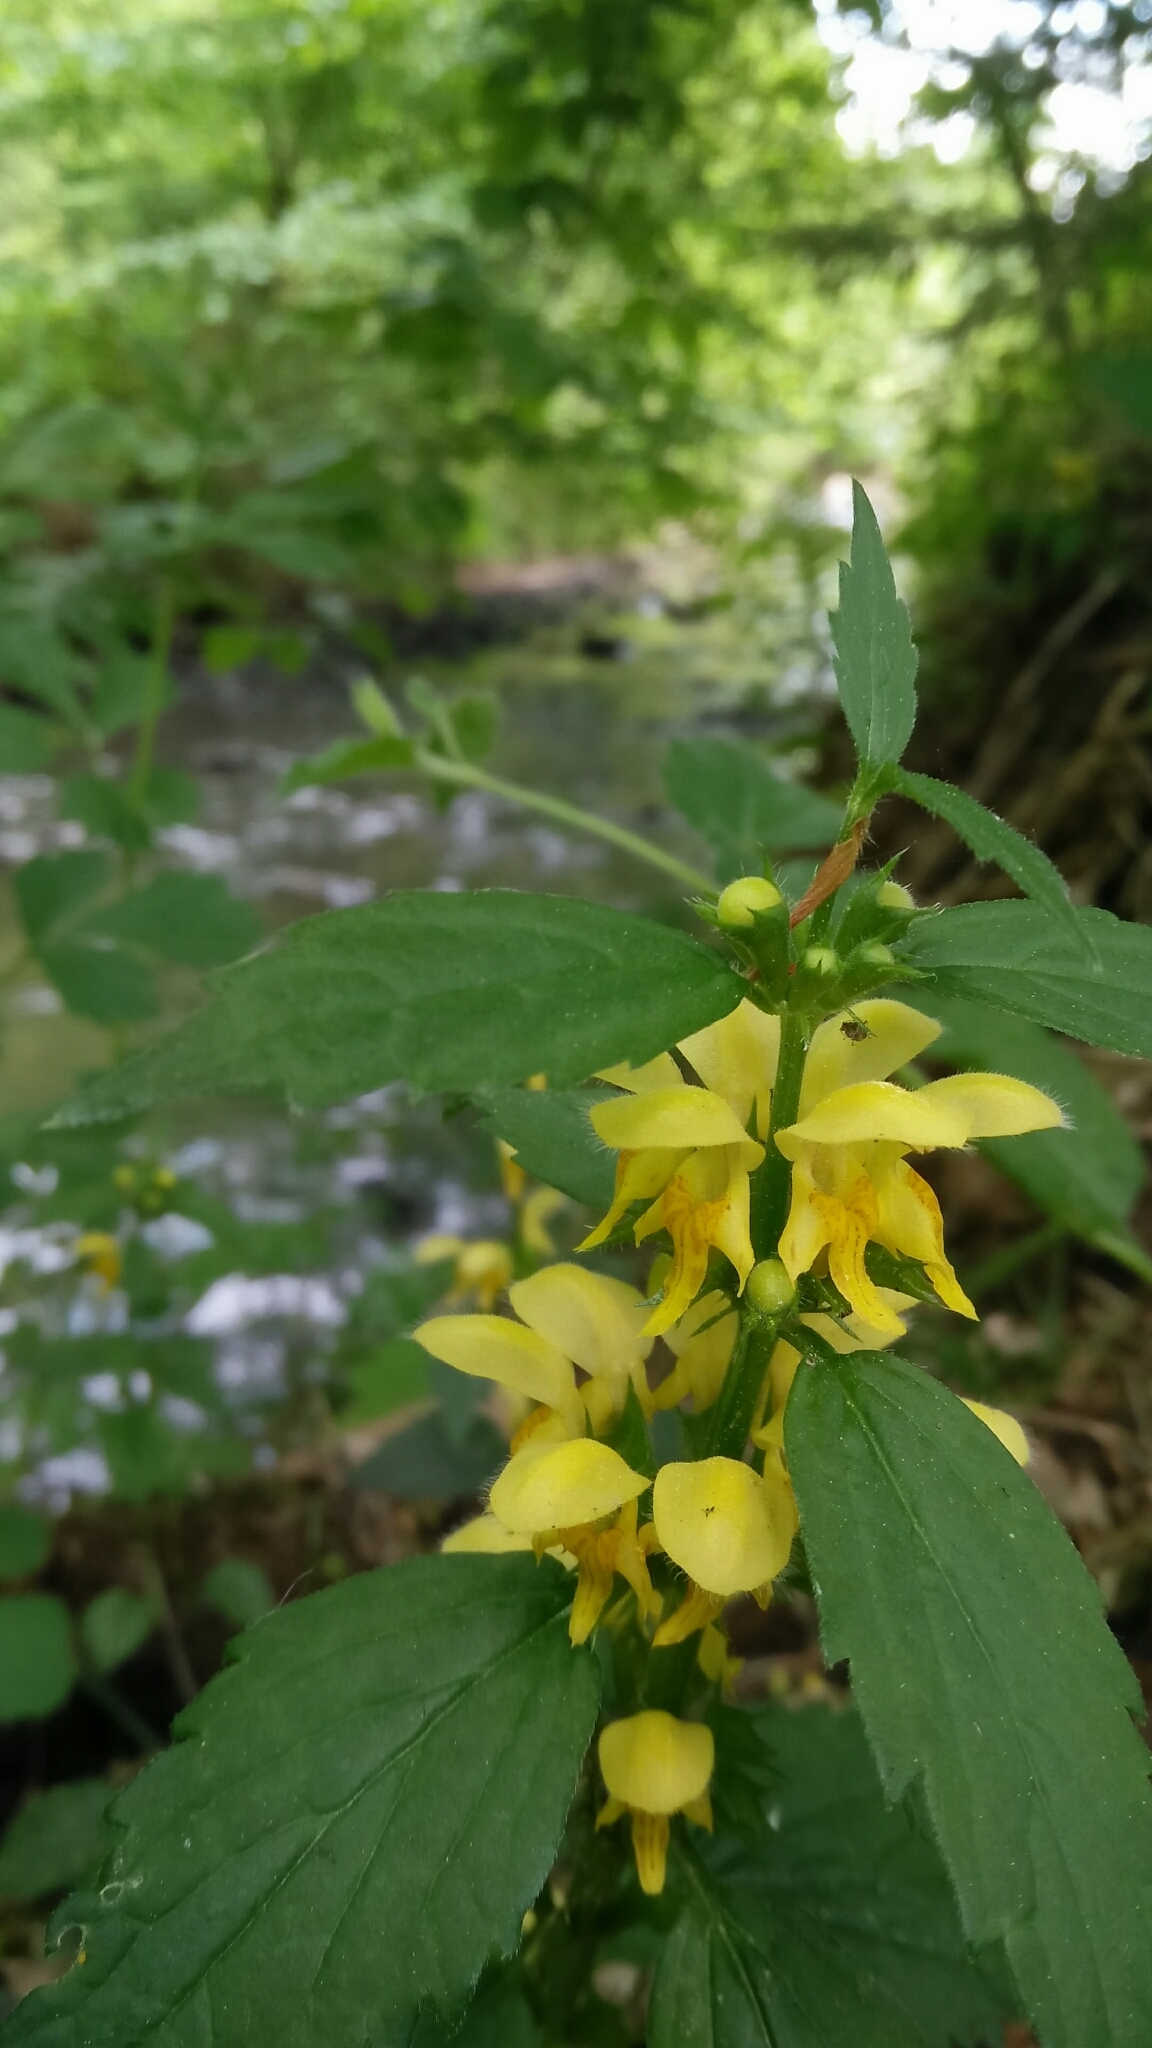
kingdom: Plantae
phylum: Tracheophyta
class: Magnoliopsida
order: Lamiales
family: Lamiaceae
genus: Lamium
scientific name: Lamium galeobdolon
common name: Yellow archangel
